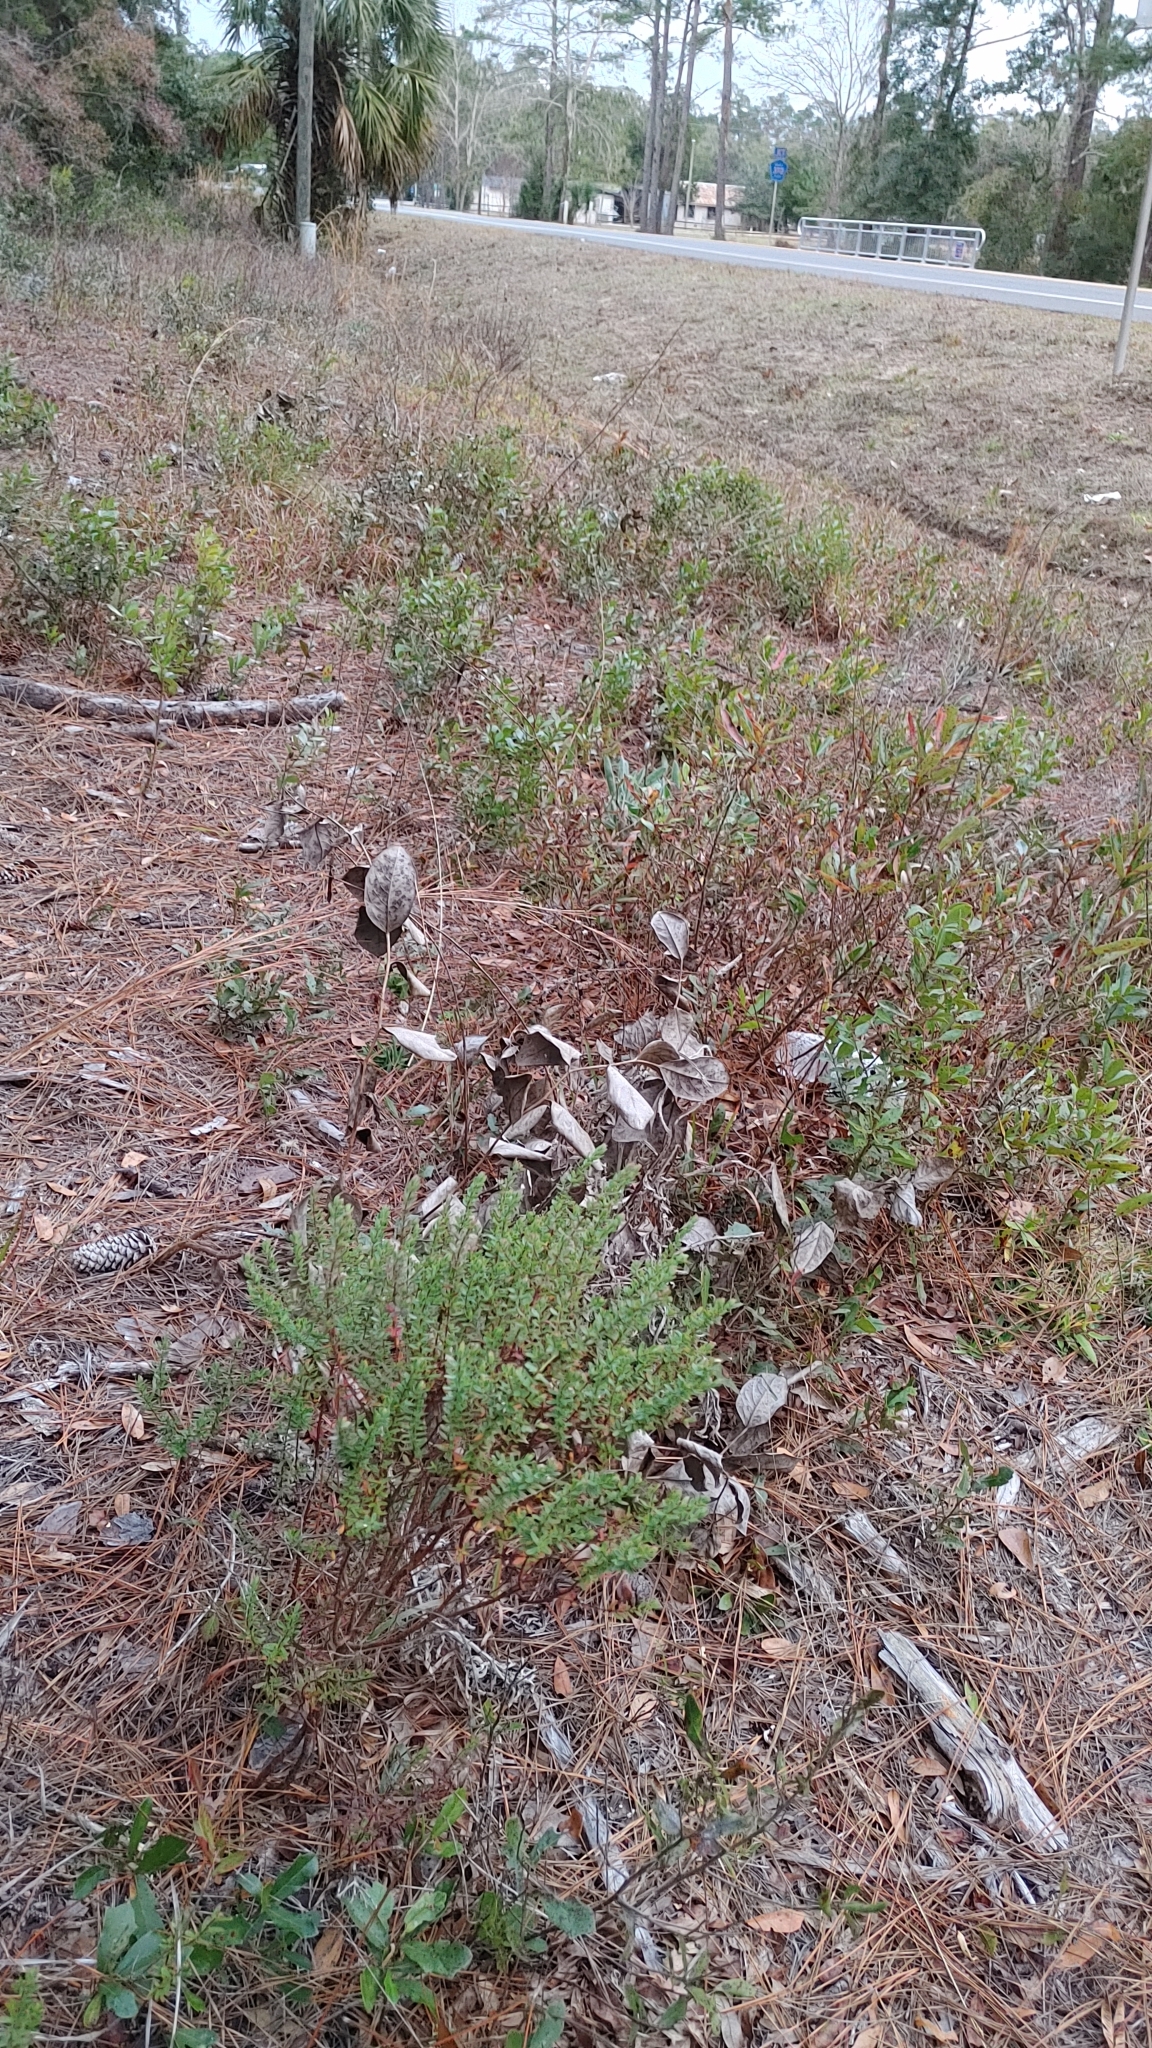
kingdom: Plantae
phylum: Tracheophyta
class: Magnoliopsida
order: Malpighiales
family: Hypericaceae
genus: Hypericum
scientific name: Hypericum crux-andreae
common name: St.-peter's-wort
